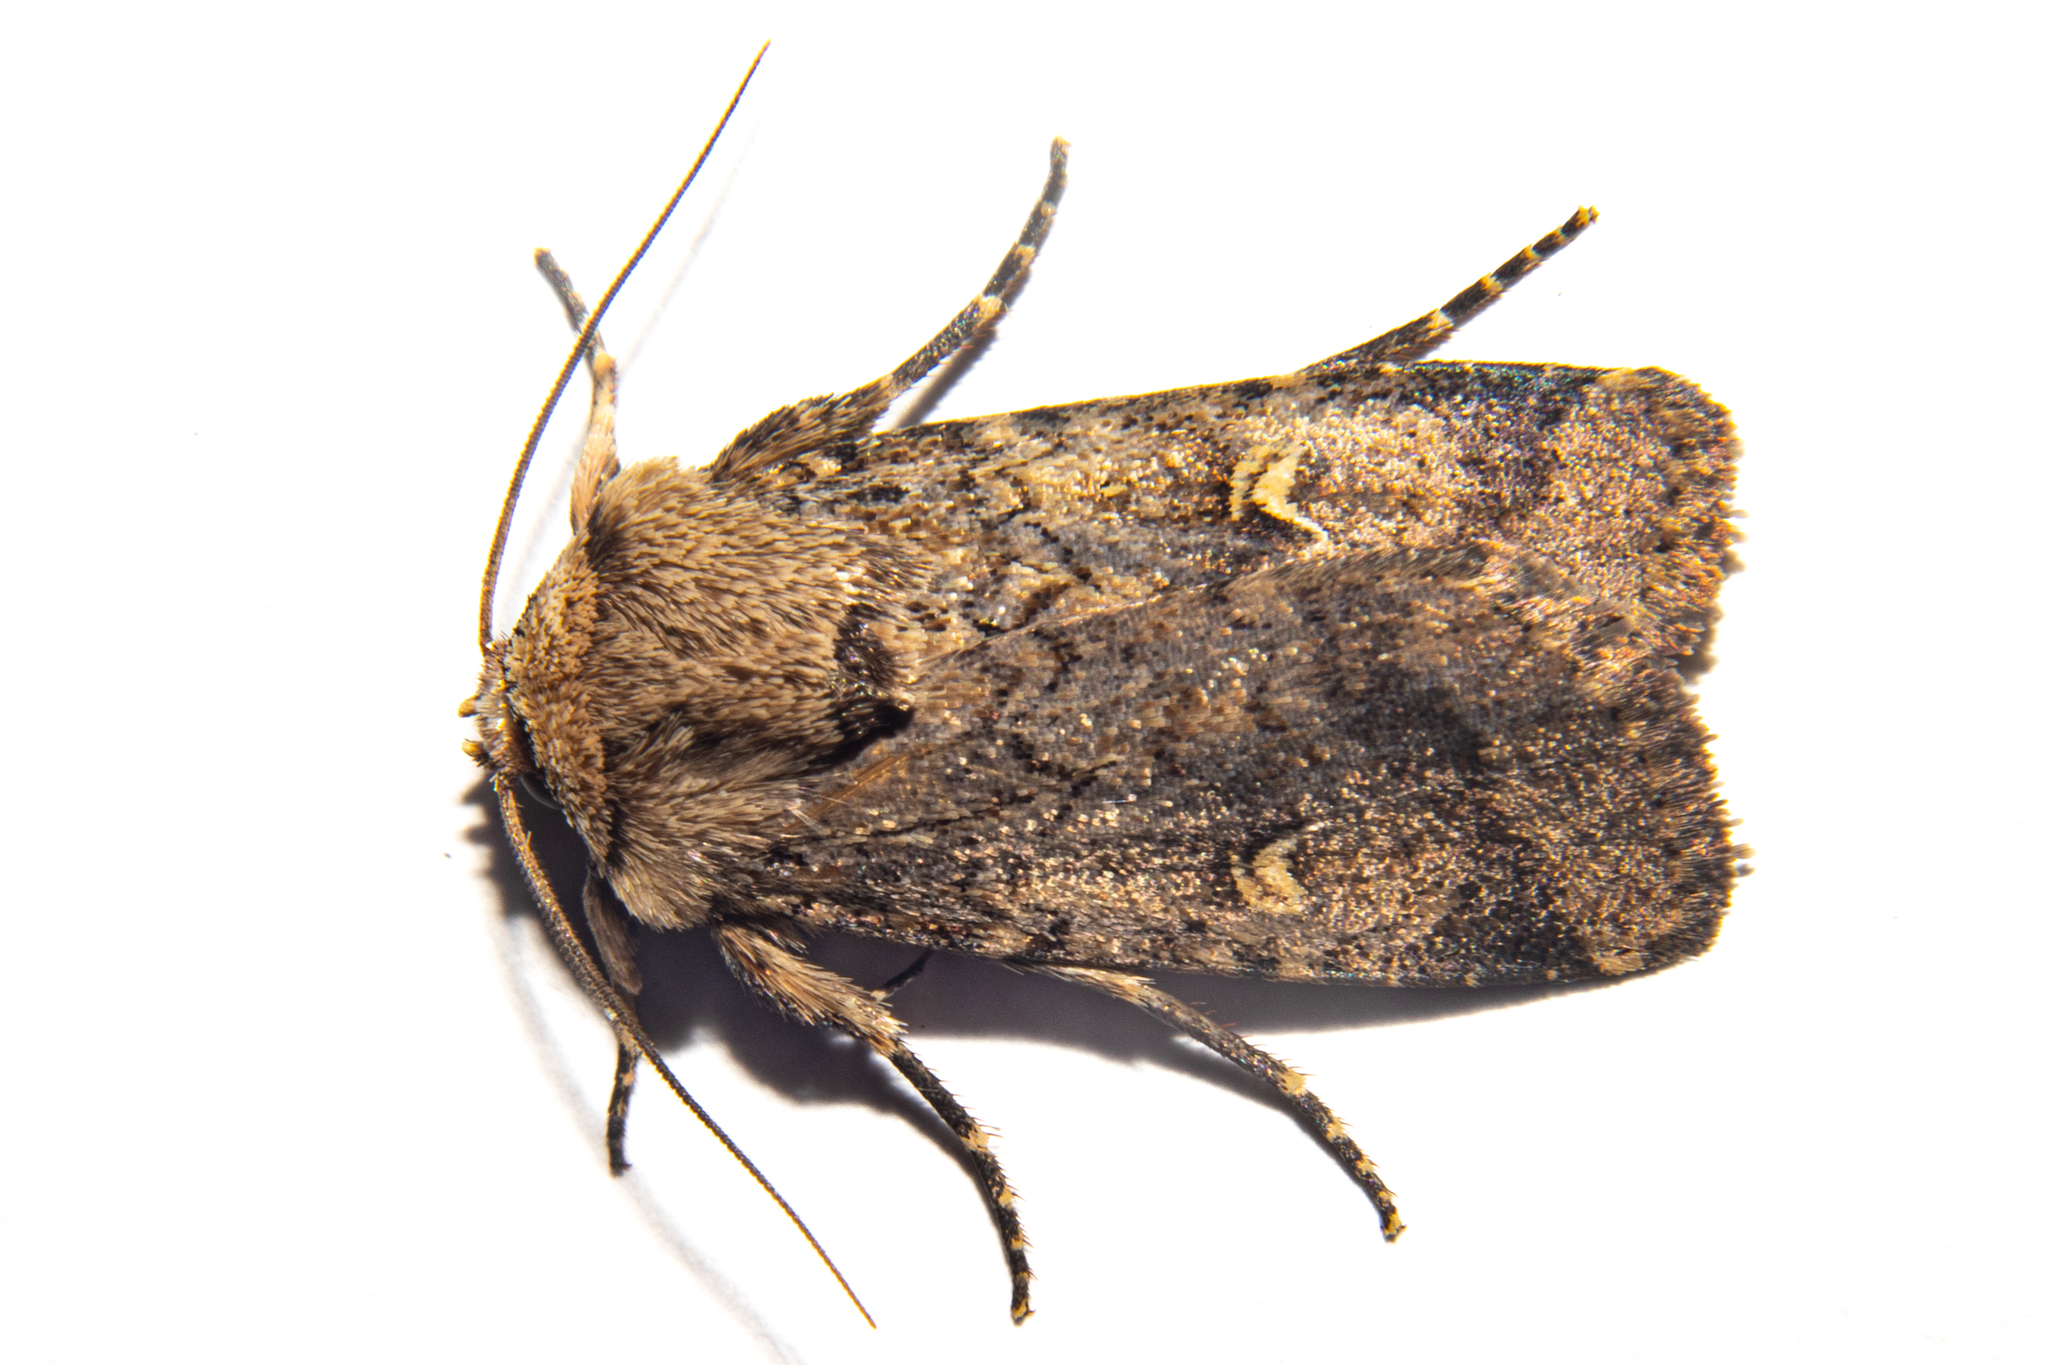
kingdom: Animalia
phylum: Arthropoda
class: Insecta
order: Lepidoptera
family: Noctuidae
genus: Proteuxoa
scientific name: Proteuxoa tetronycha
